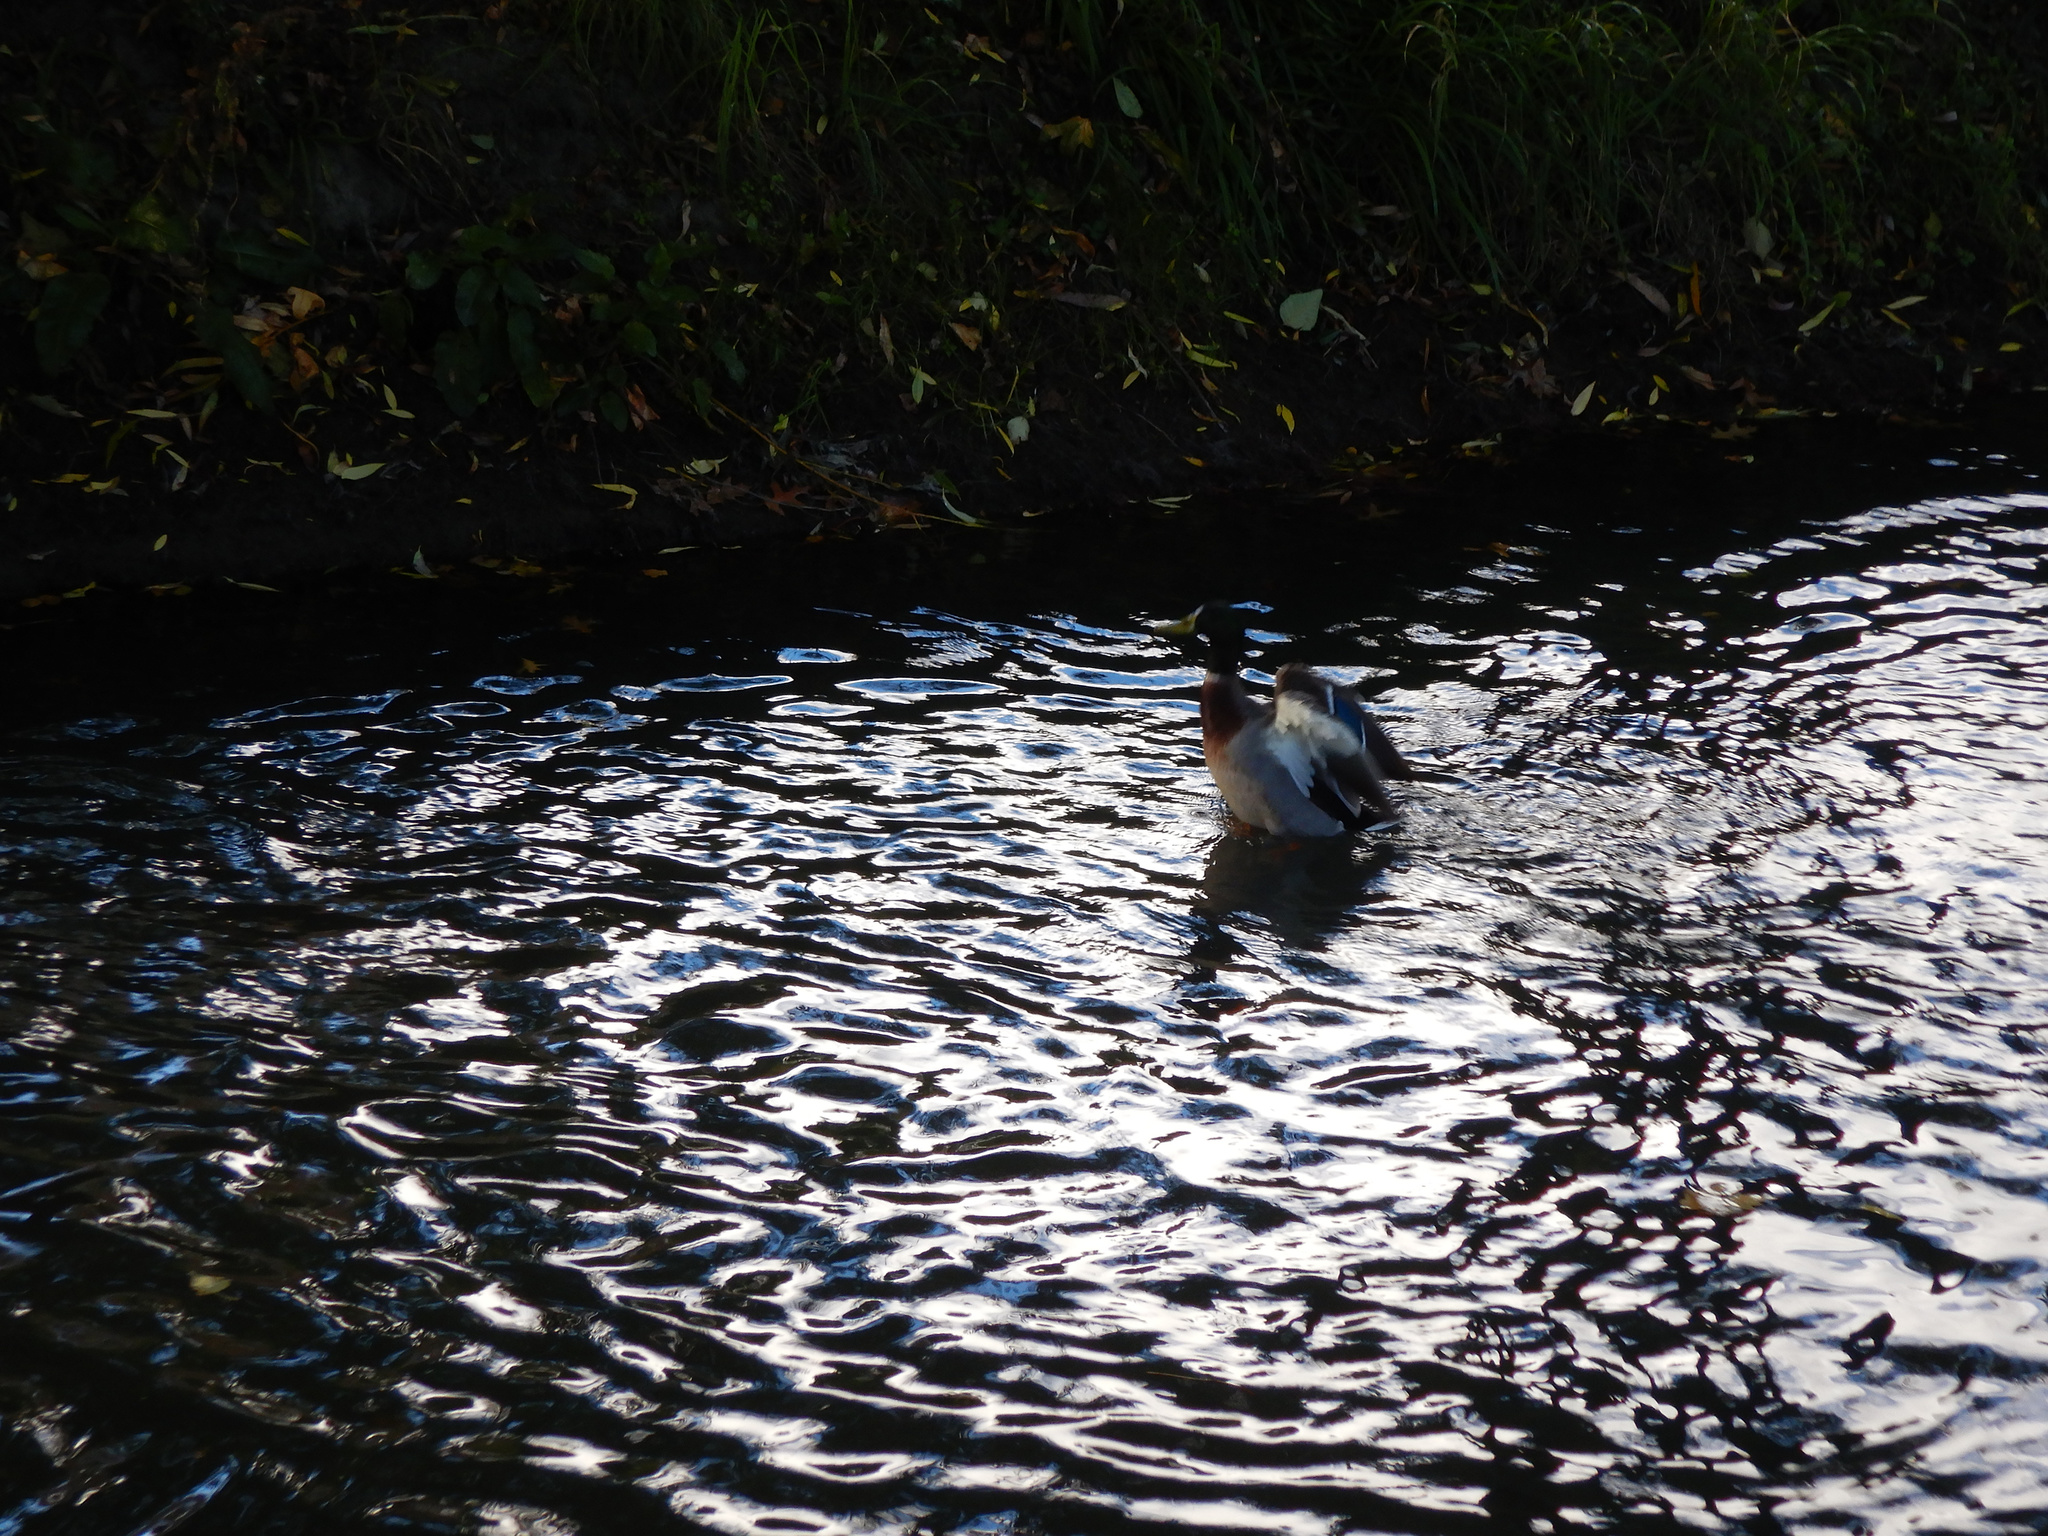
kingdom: Animalia
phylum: Chordata
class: Aves
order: Anseriformes
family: Anatidae
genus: Anas
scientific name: Anas platyrhynchos
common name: Mallard
